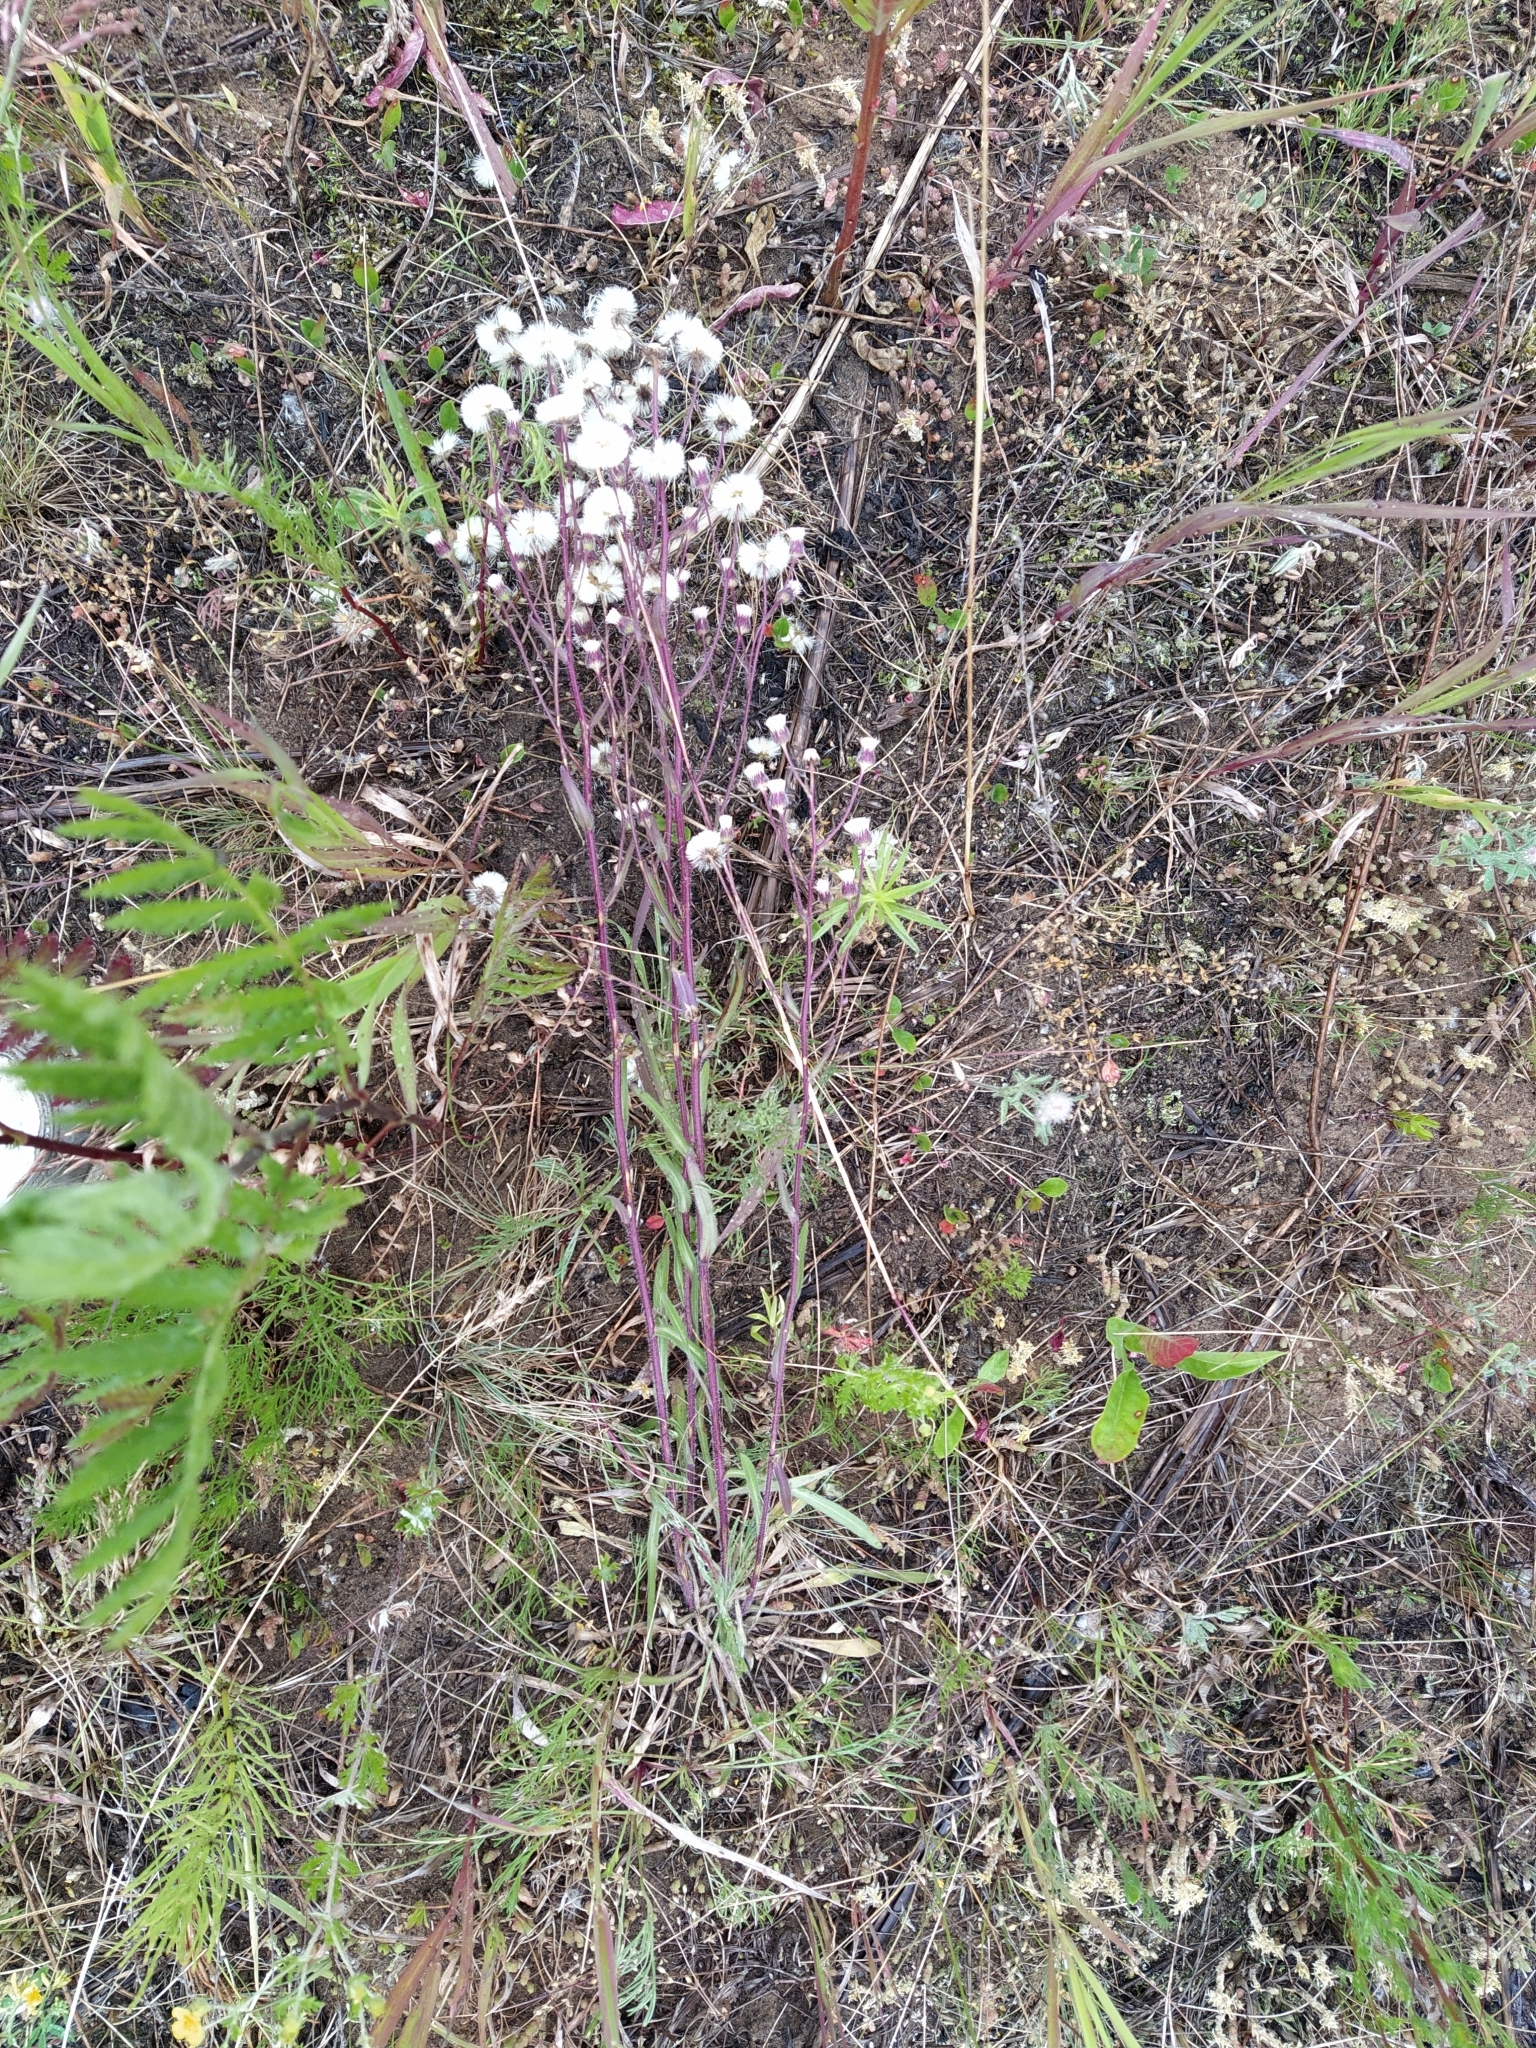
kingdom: Plantae
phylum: Tracheophyta
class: Magnoliopsida
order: Asterales
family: Asteraceae
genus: Erigeron
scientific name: Erigeron acris
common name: Blue fleabane
